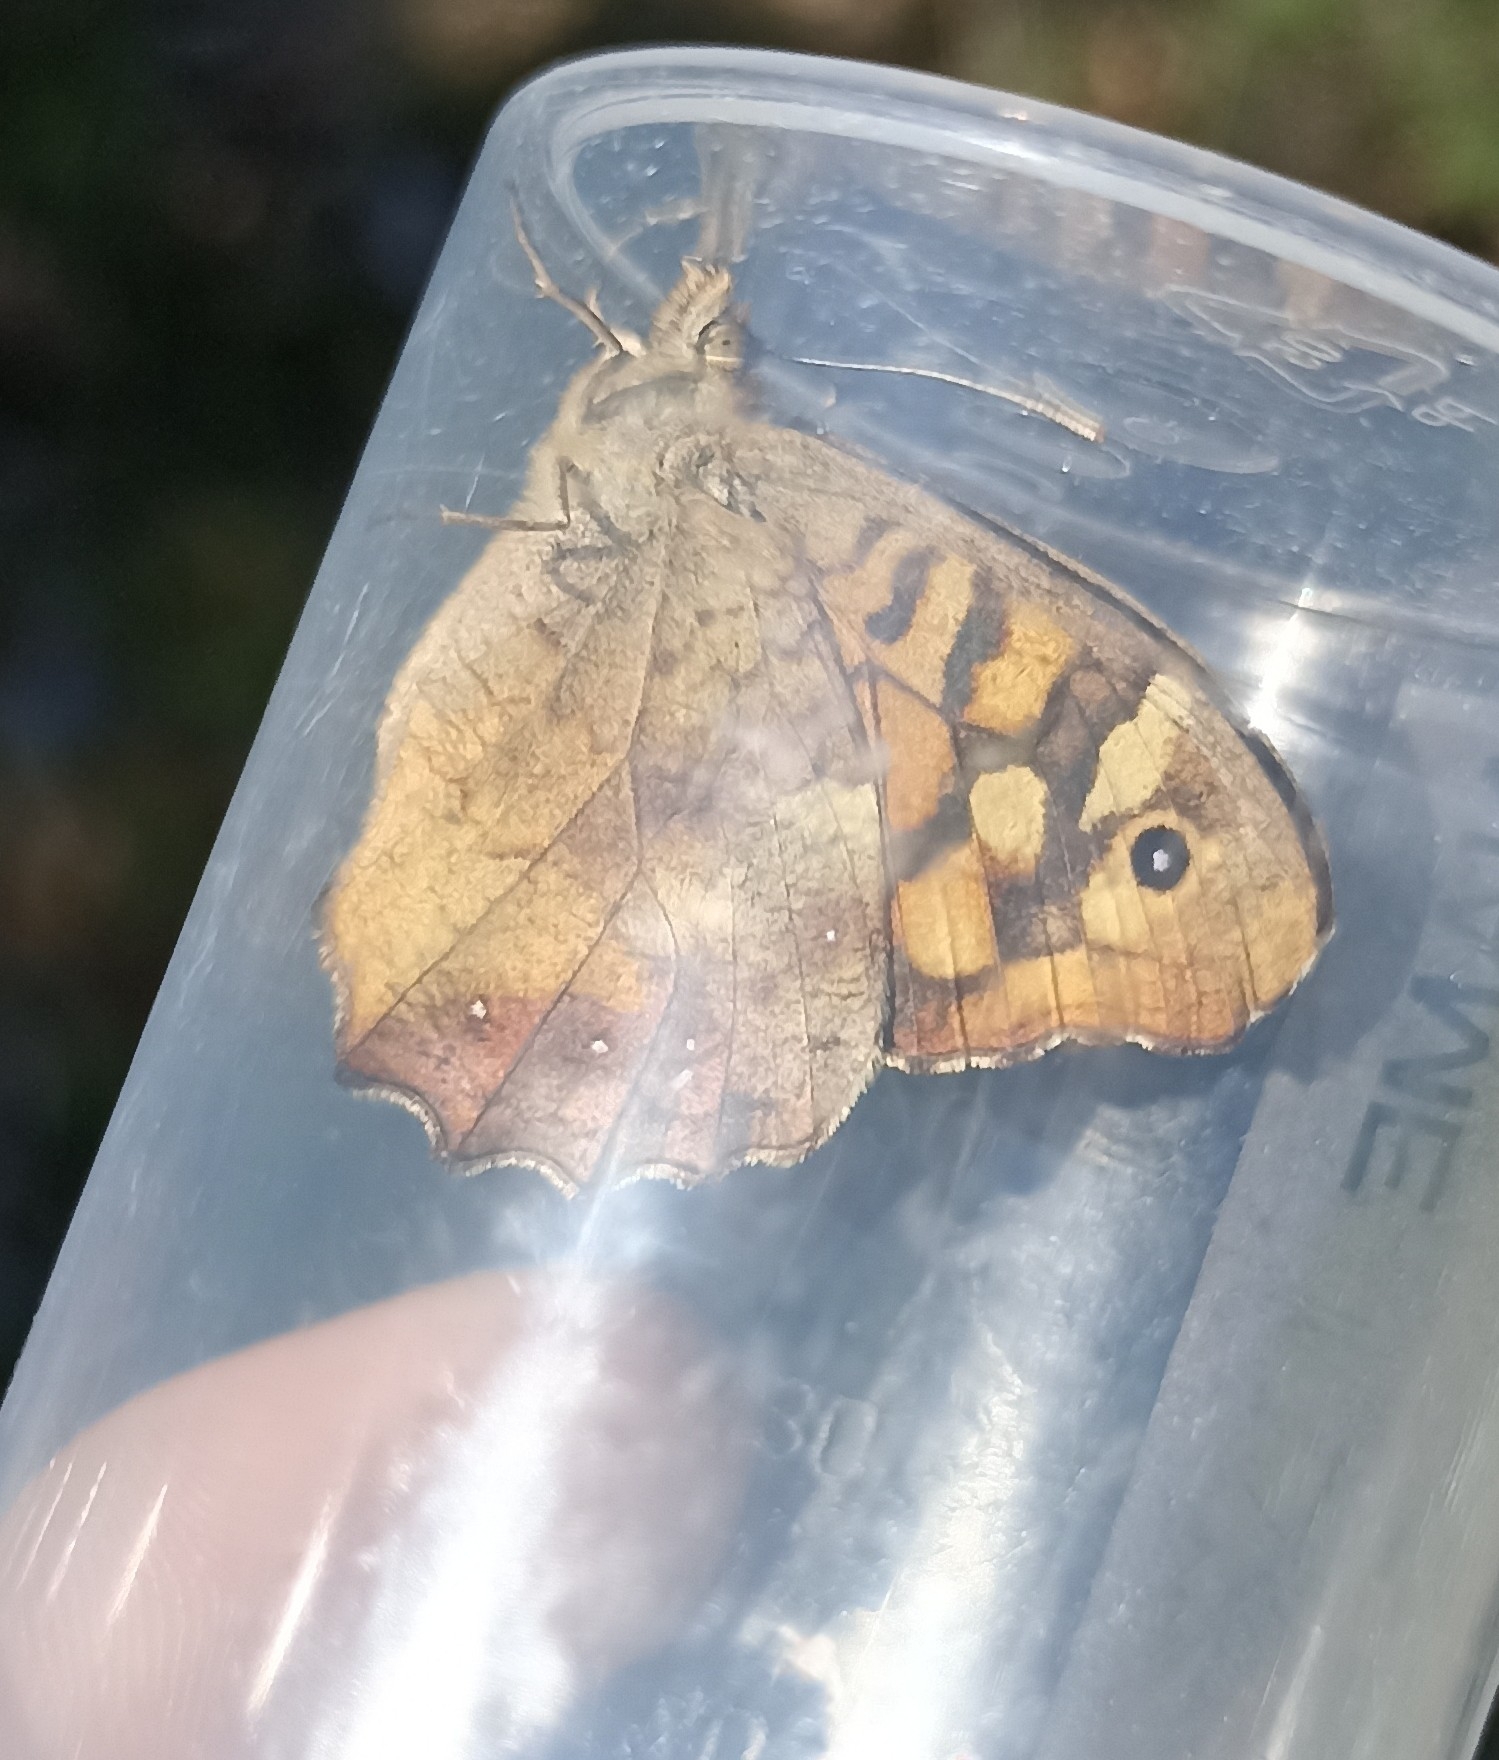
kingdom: Animalia
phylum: Arthropoda
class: Insecta
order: Lepidoptera
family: Nymphalidae
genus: Pararge
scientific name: Pararge aegeria
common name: Speckled wood
